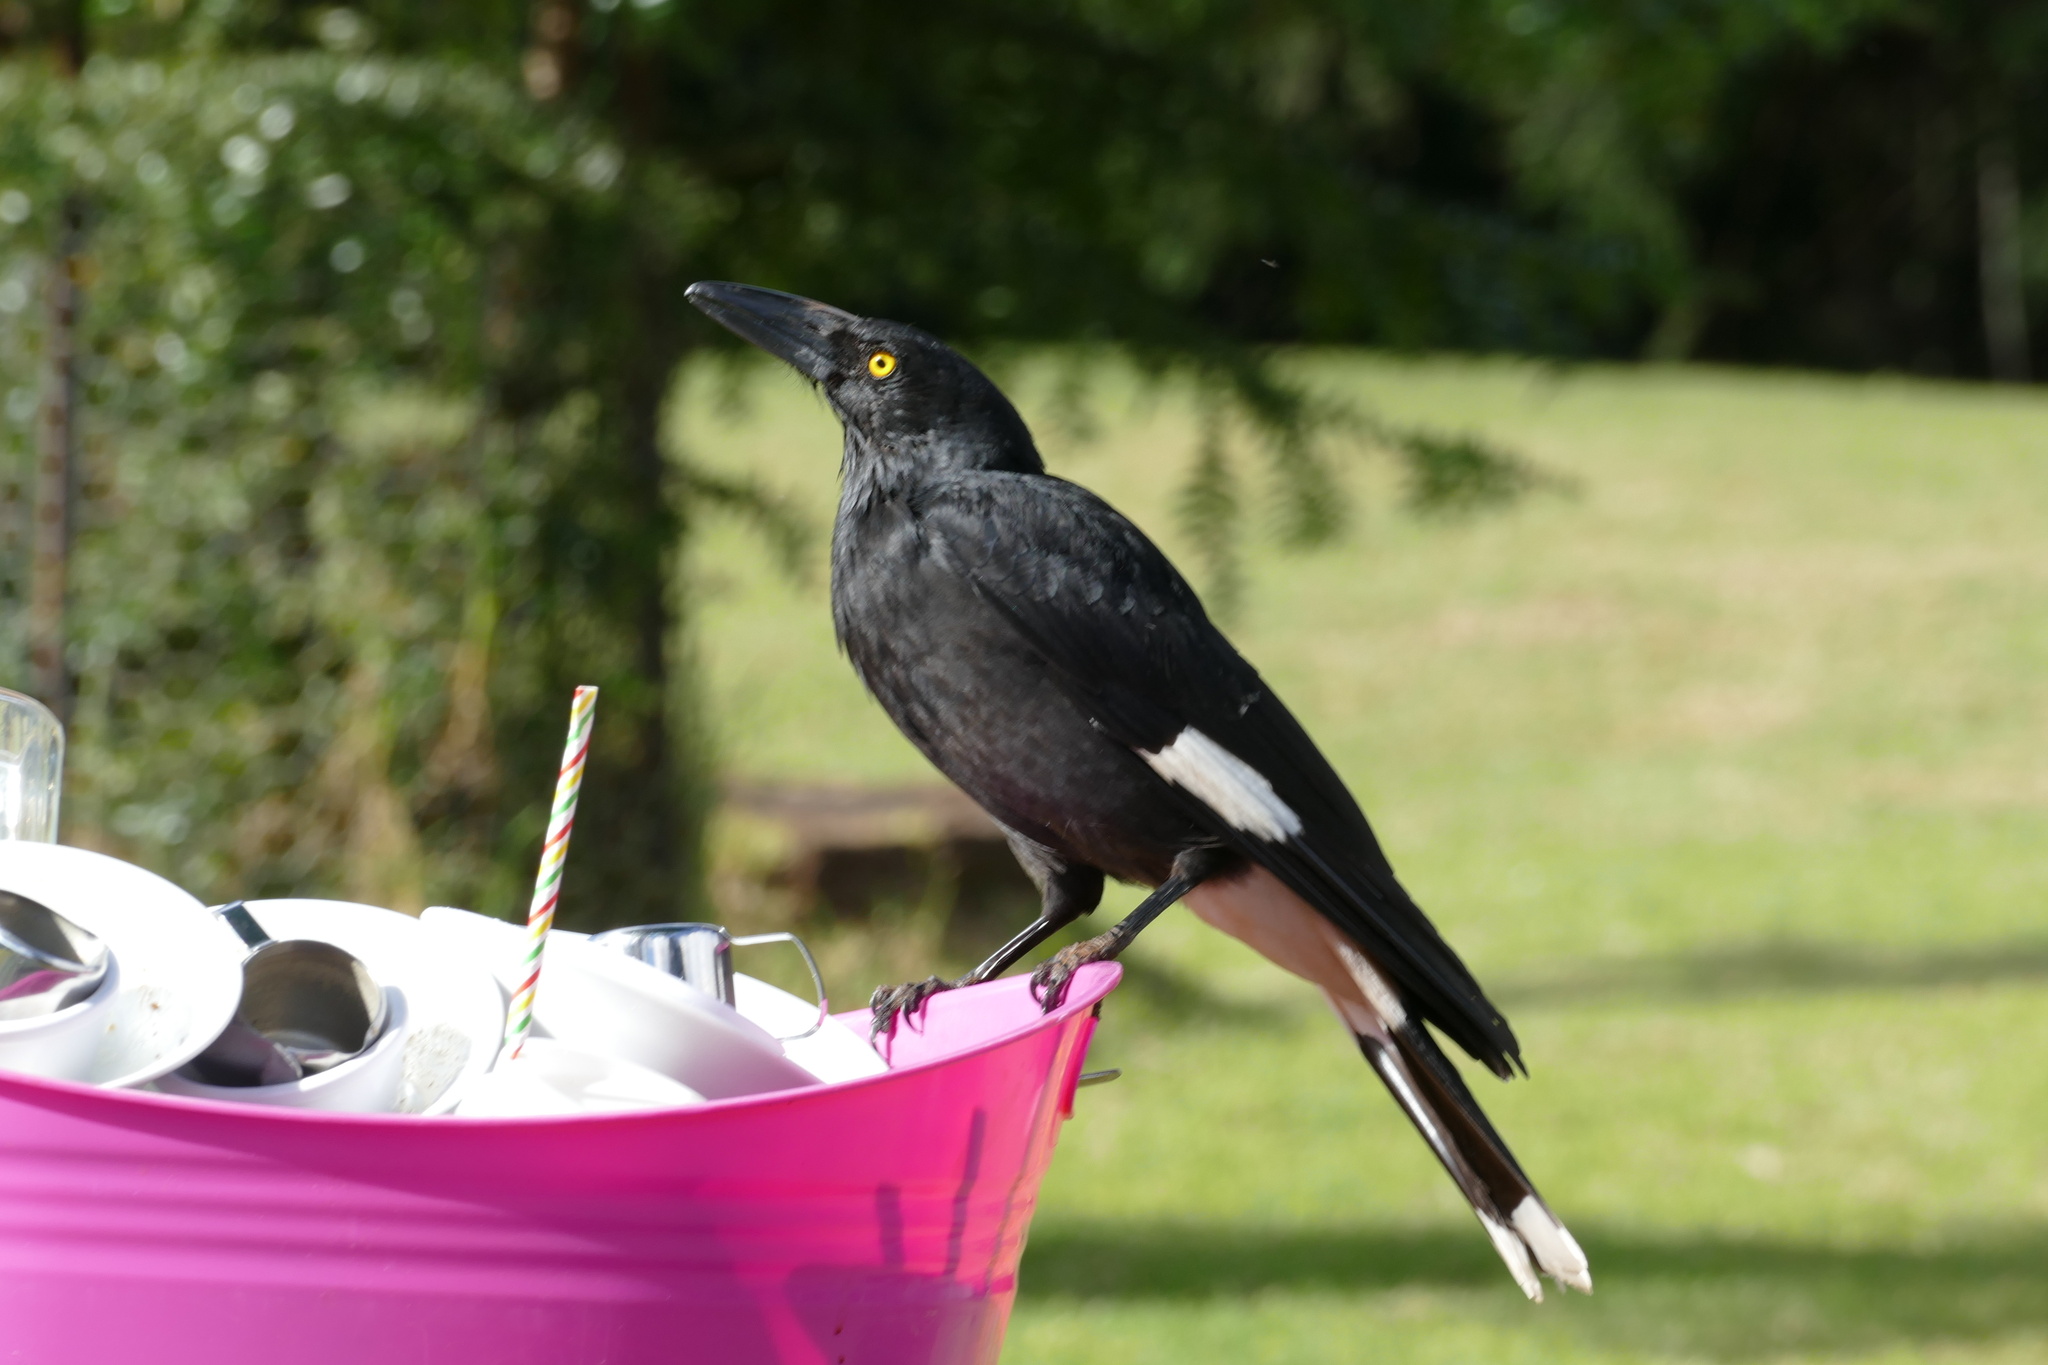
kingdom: Animalia
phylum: Chordata
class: Aves
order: Passeriformes
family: Cracticidae
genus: Strepera
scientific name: Strepera graculina
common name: Pied currawong
